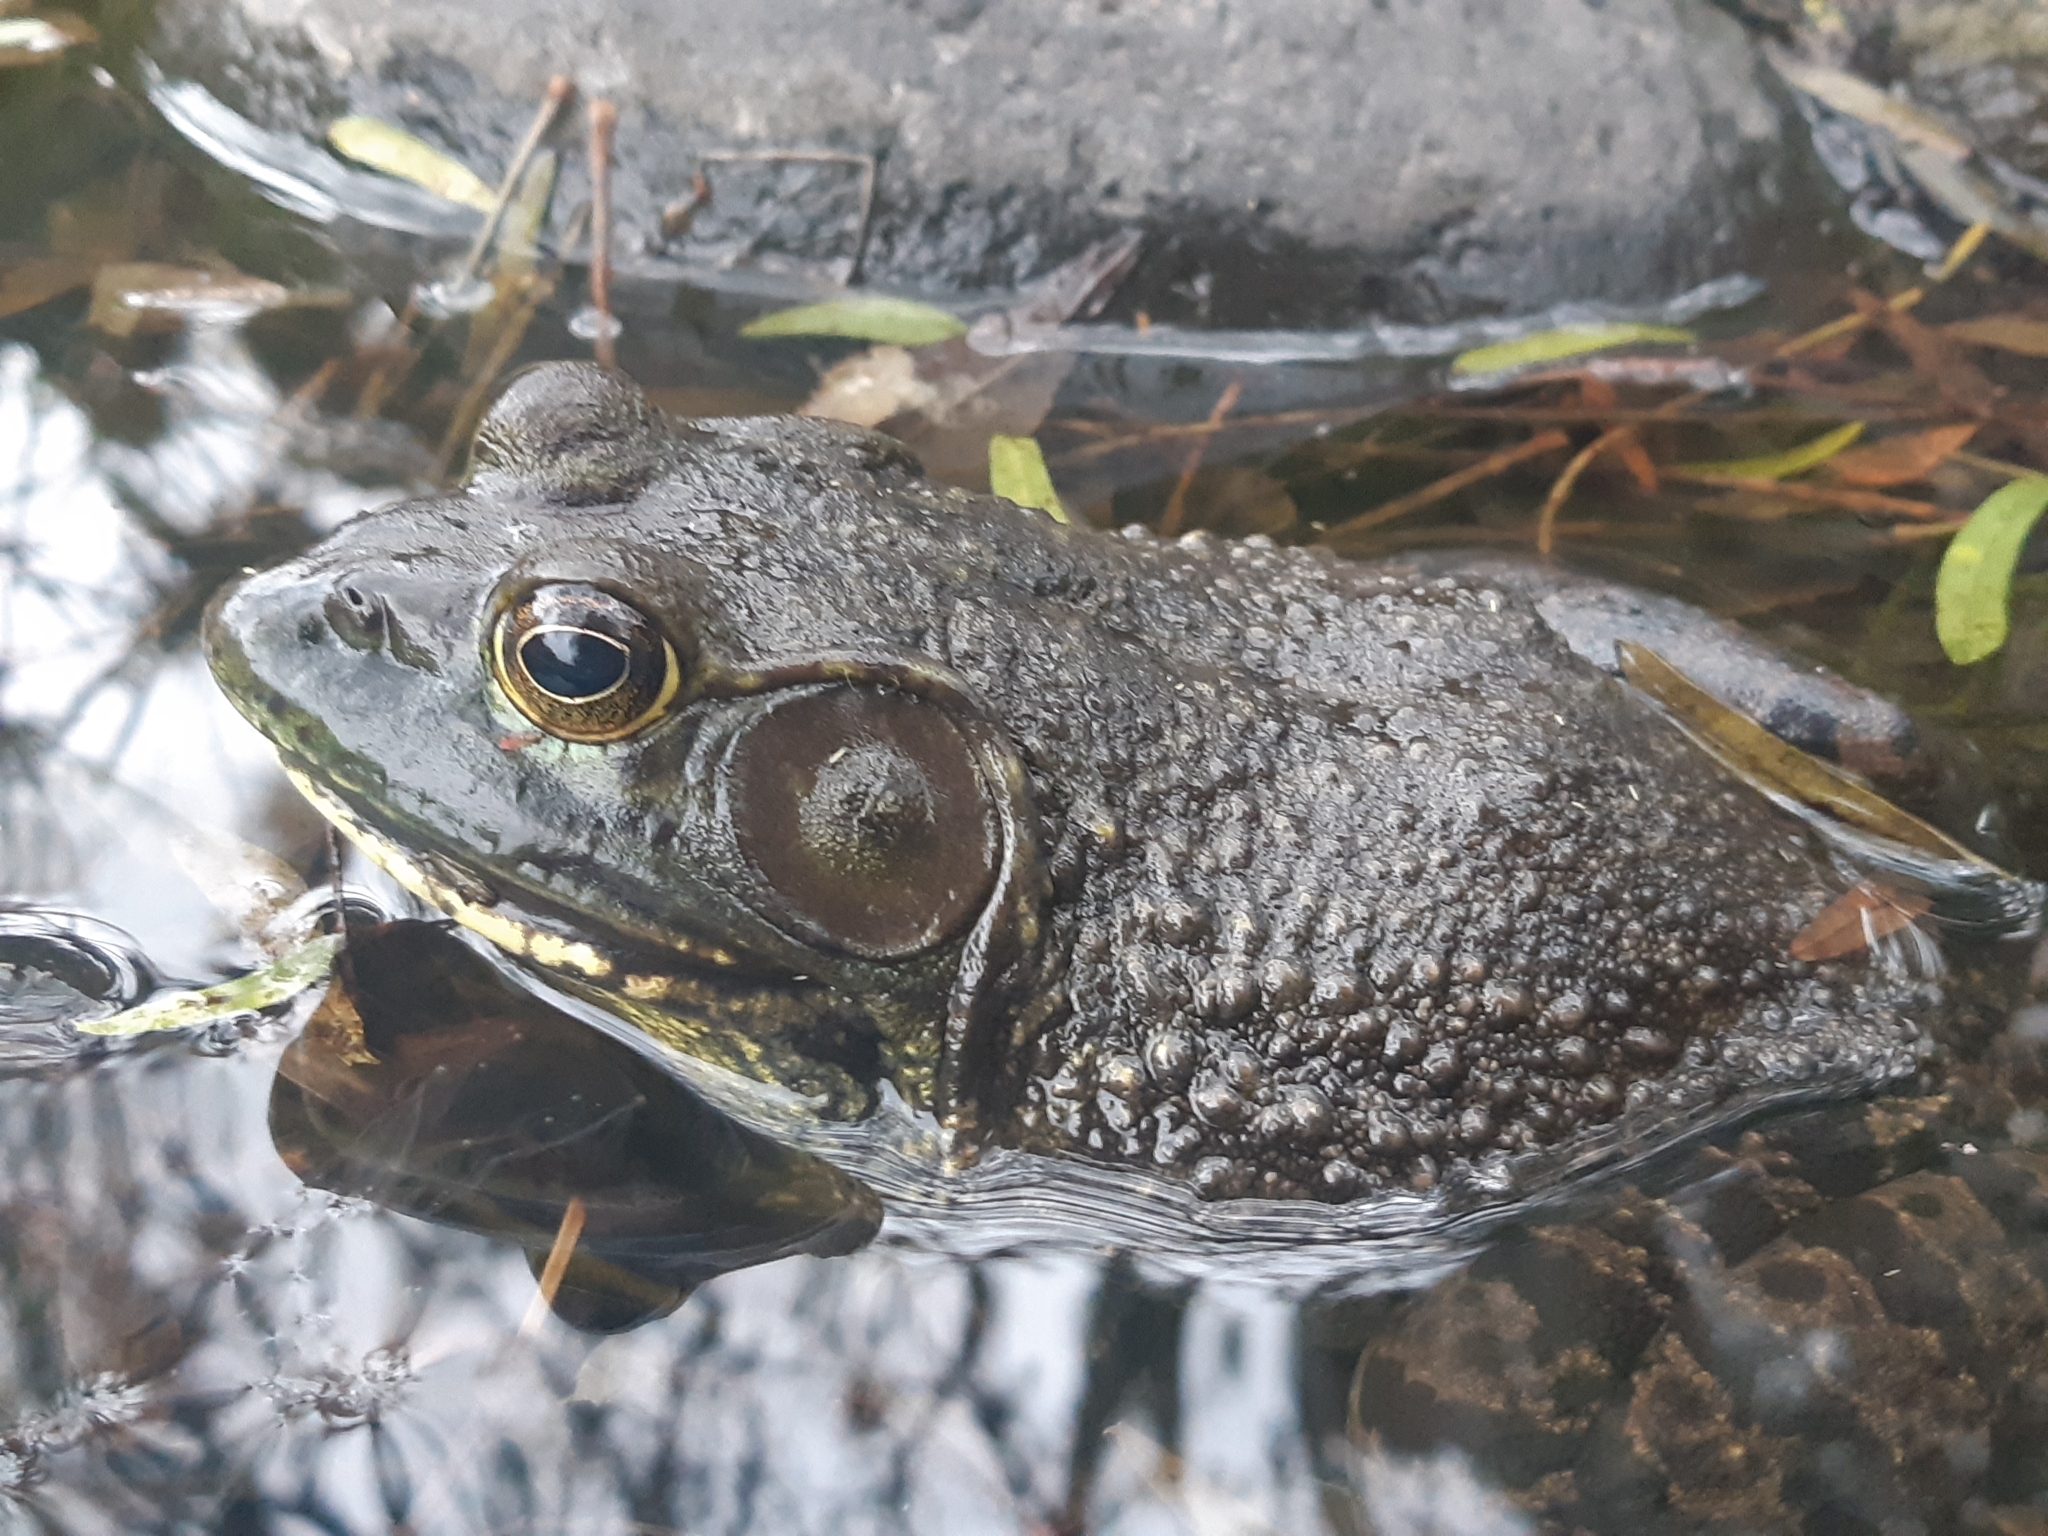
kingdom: Animalia
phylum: Chordata
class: Amphibia
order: Anura
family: Ranidae
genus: Lithobates
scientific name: Lithobates catesbeianus
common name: American bullfrog
